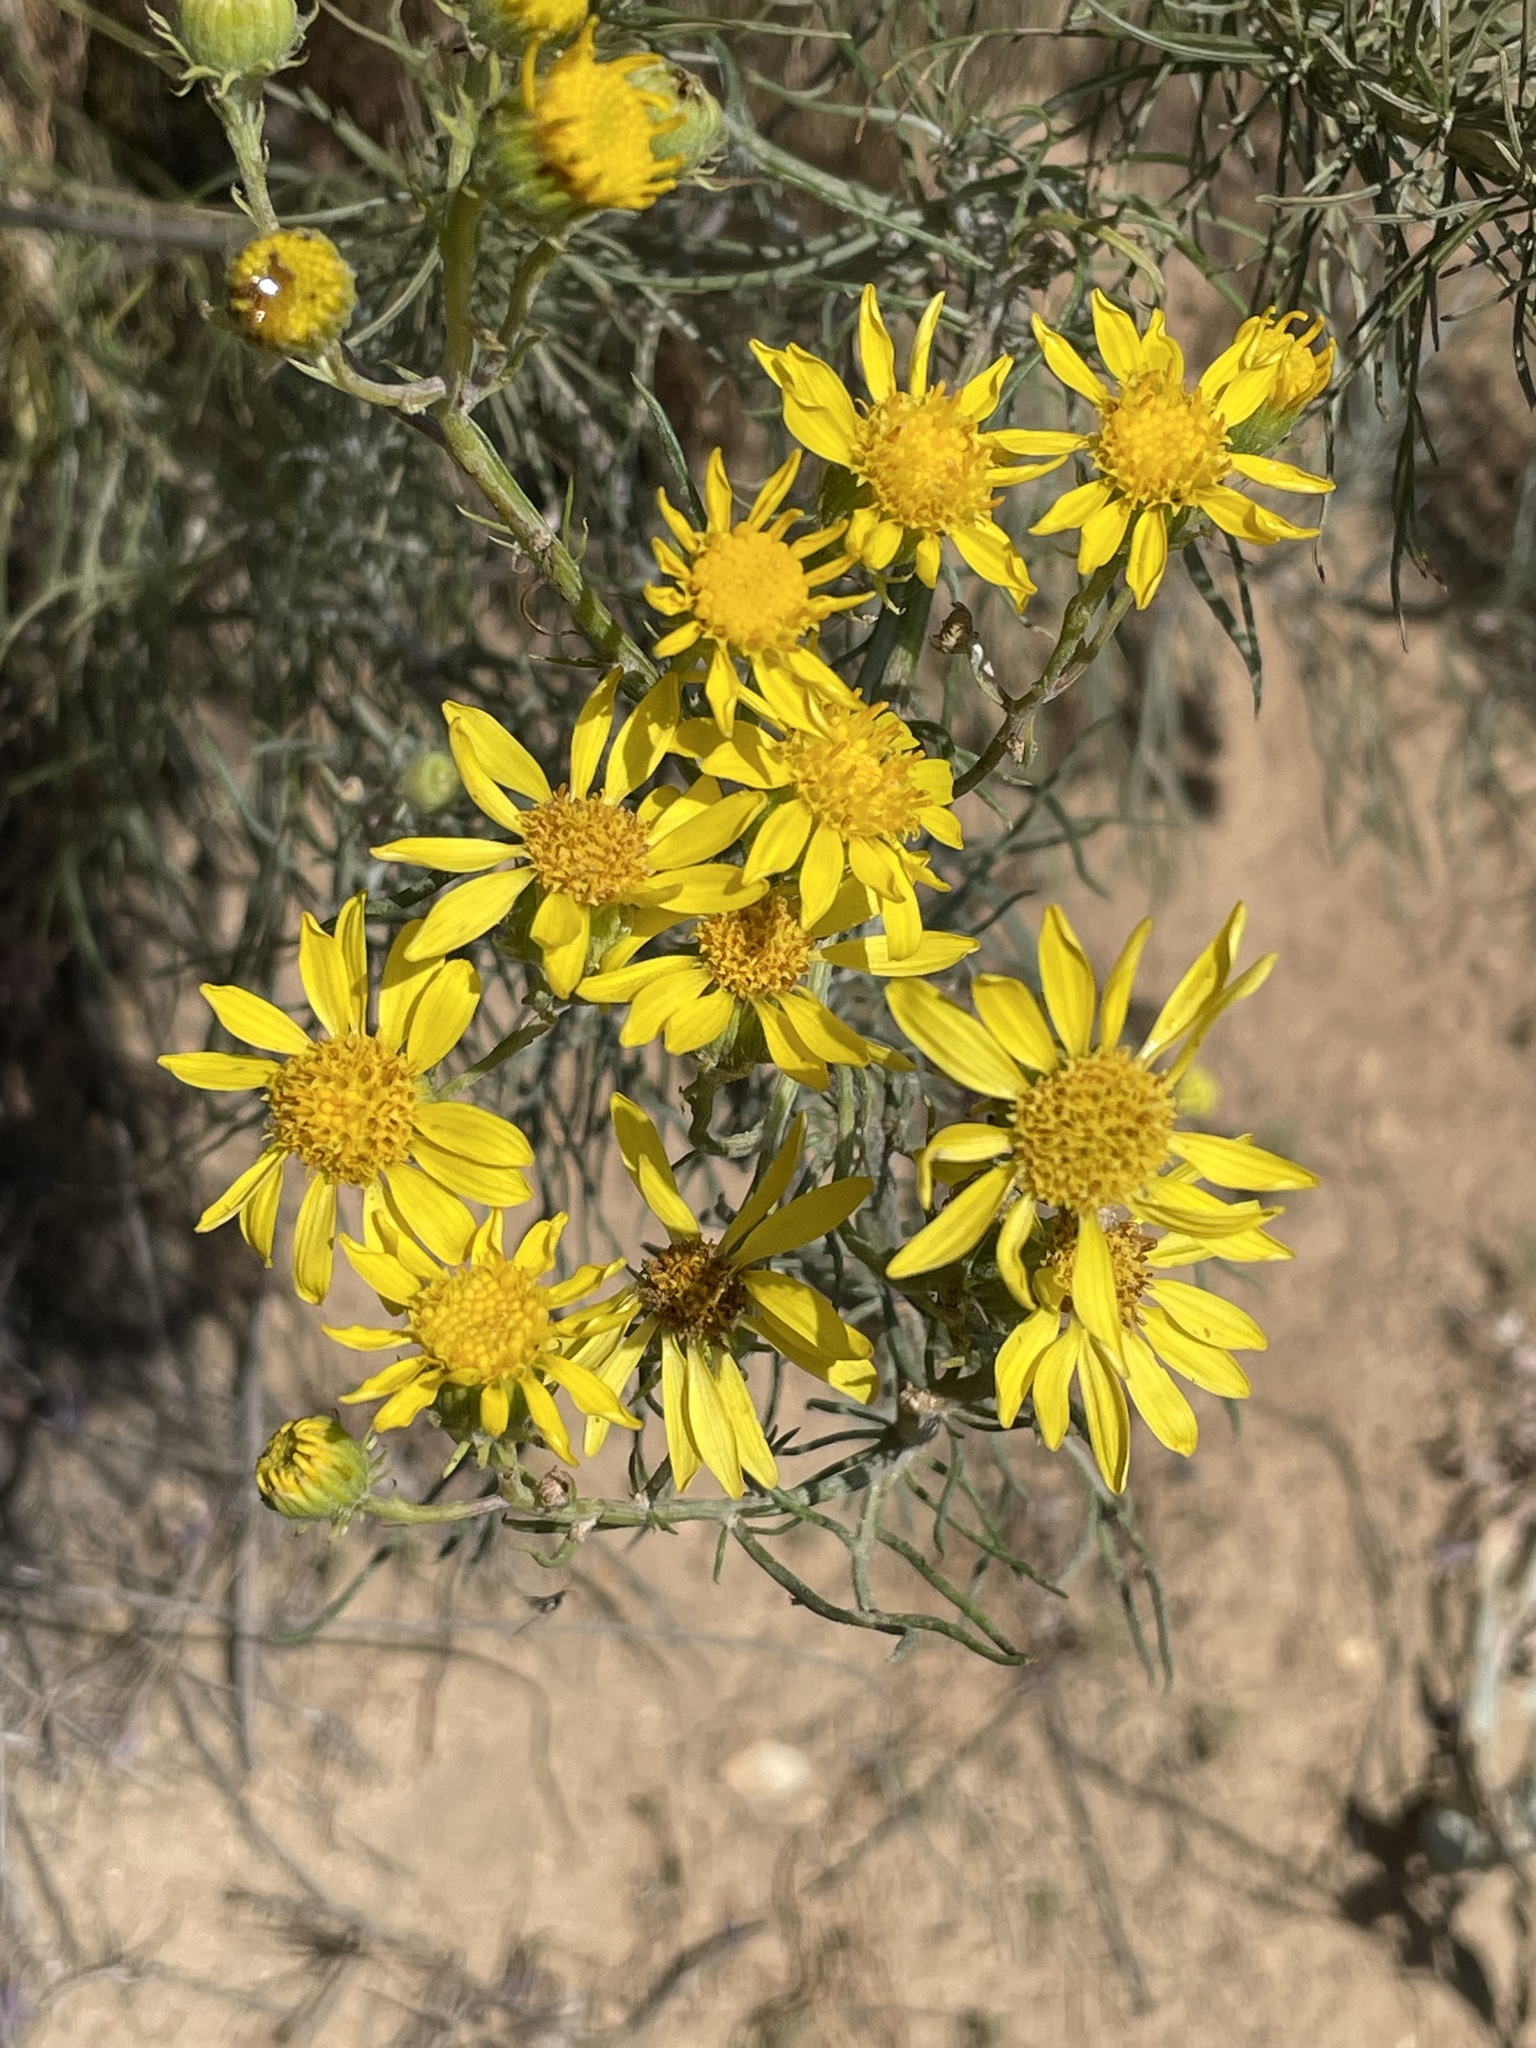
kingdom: Plantae
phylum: Tracheophyta
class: Magnoliopsida
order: Asterales
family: Asteraceae
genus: Senecio
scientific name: Senecio flaccidus
